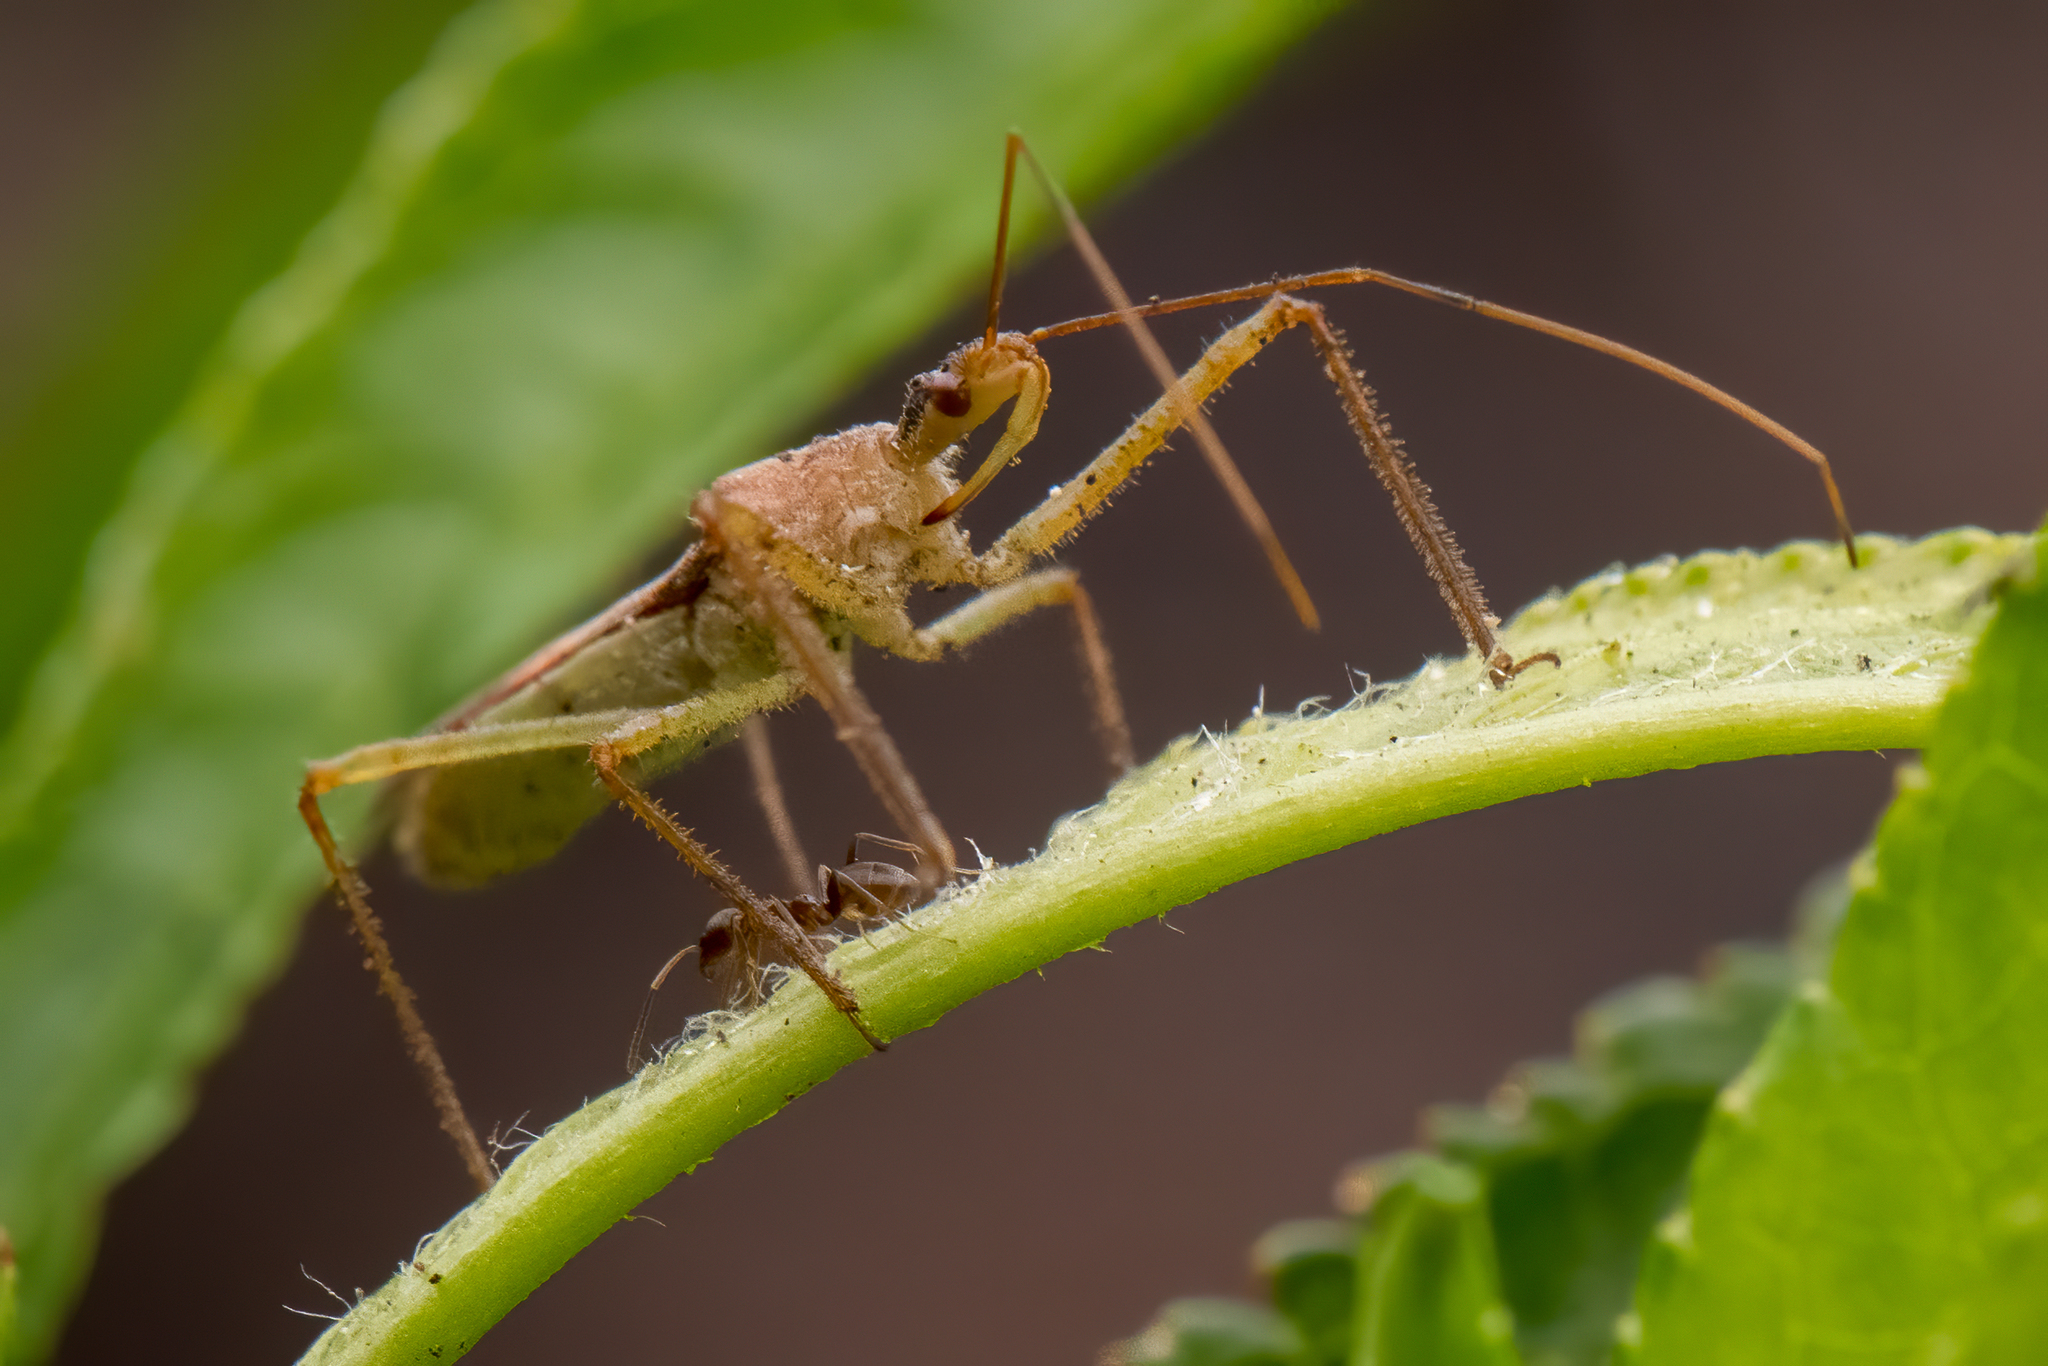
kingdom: Animalia
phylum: Arthropoda
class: Insecta
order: Hemiptera
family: Reduviidae
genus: Zelus
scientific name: Zelus renardii
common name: Assassin bug
